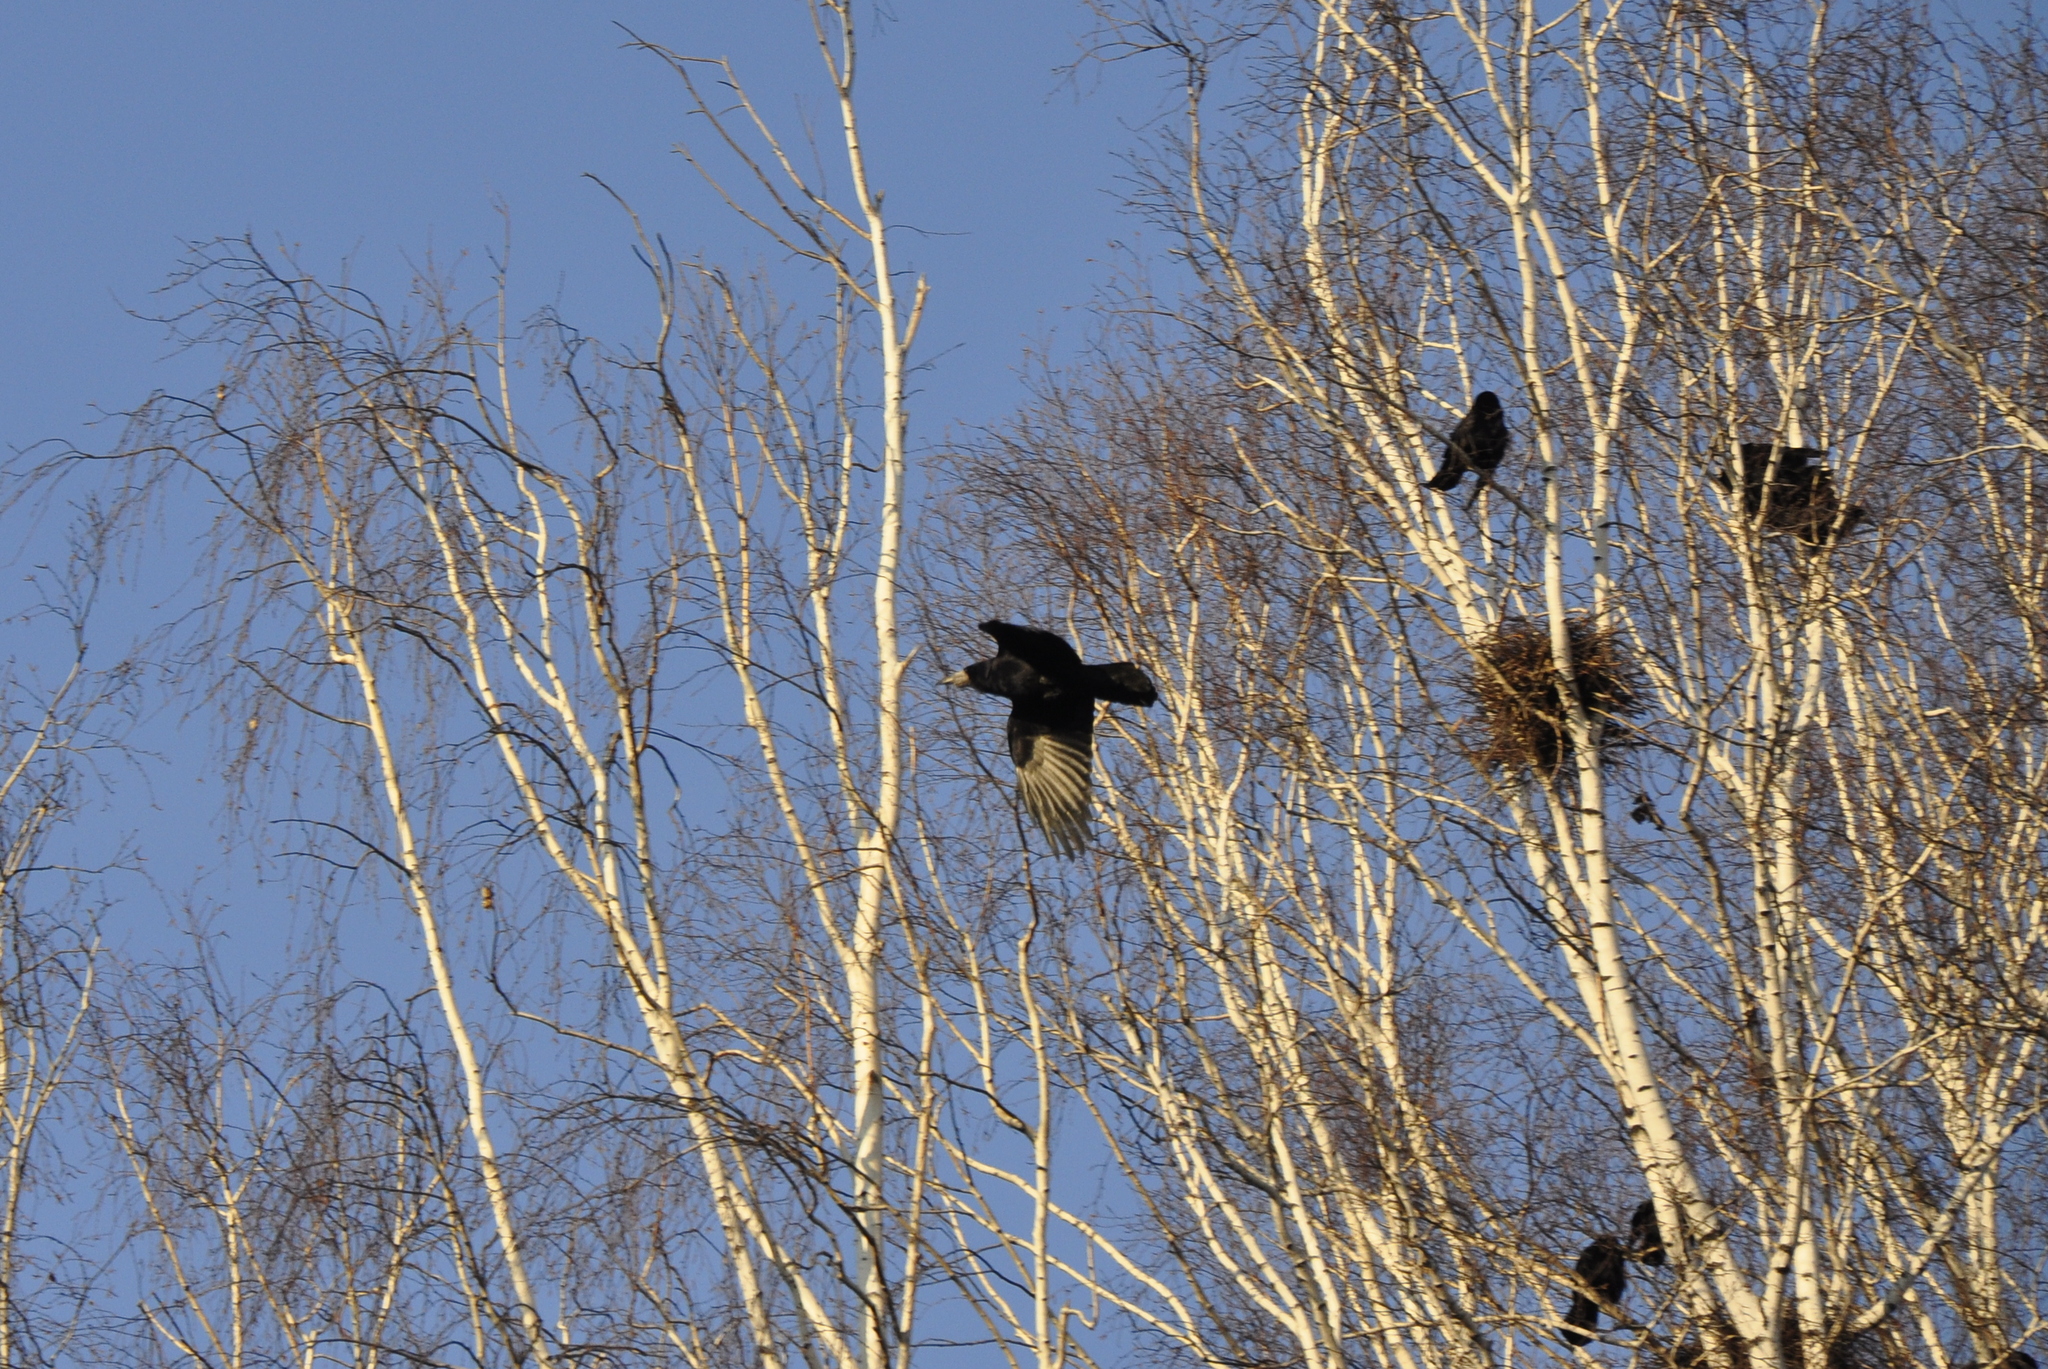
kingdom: Animalia
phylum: Chordata
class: Aves
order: Passeriformes
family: Corvidae
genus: Corvus
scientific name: Corvus frugilegus
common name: Rook
